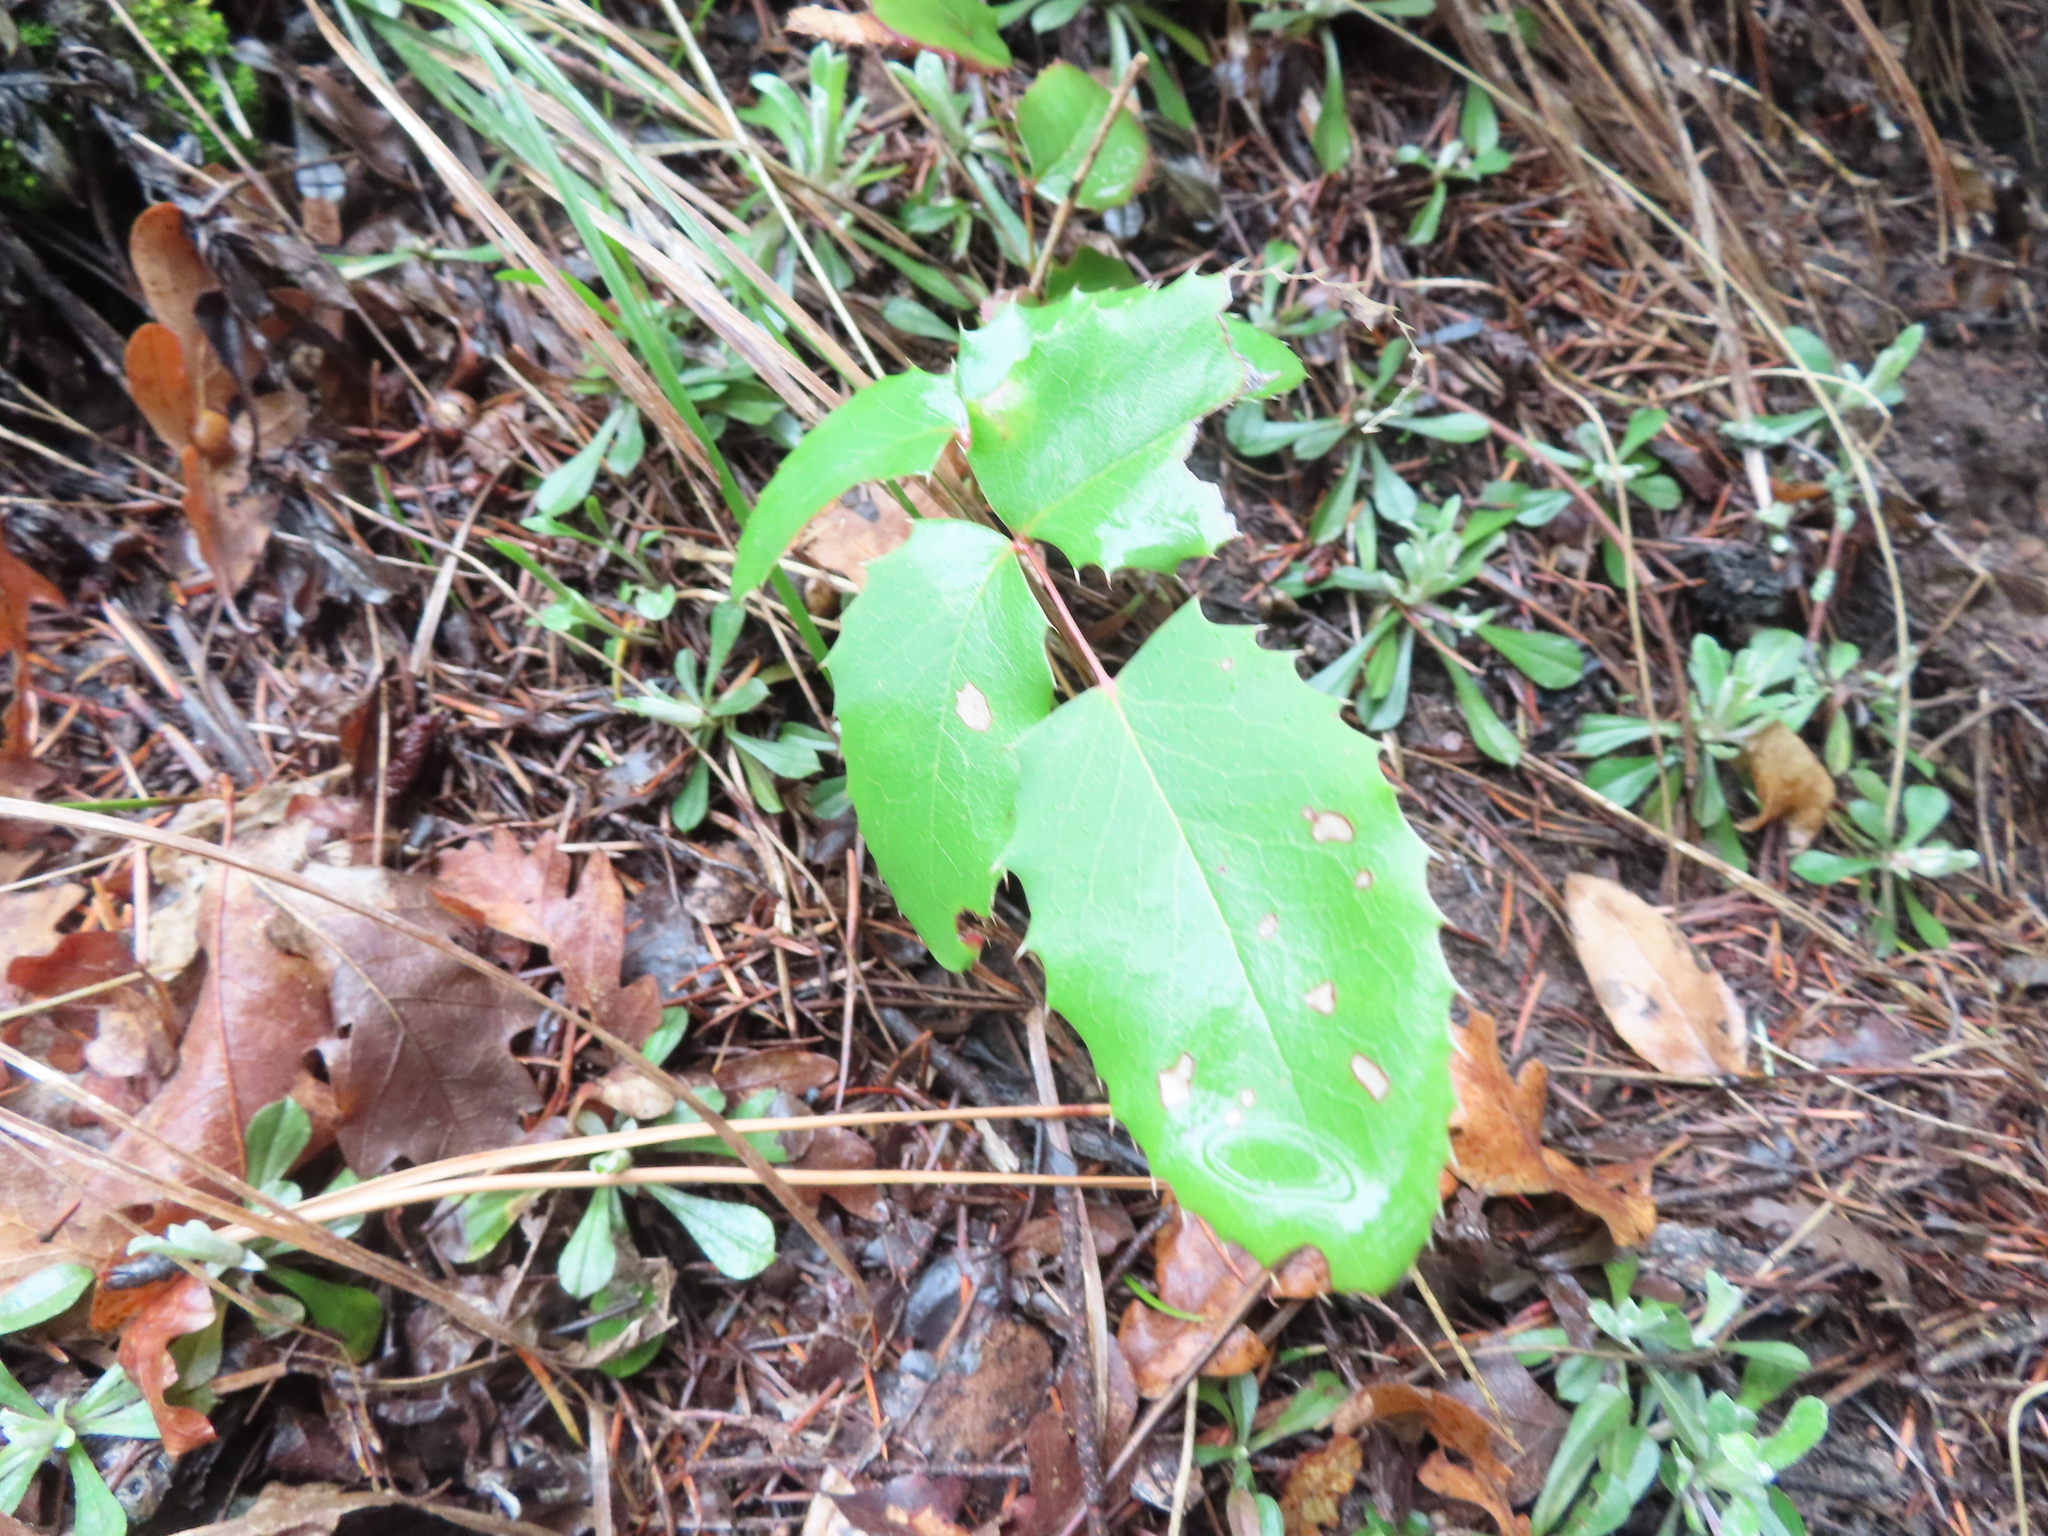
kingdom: Plantae
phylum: Tracheophyta
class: Magnoliopsida
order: Ranunculales
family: Berberidaceae
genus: Mahonia
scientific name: Mahonia repens
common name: Creeping oregon-grape
